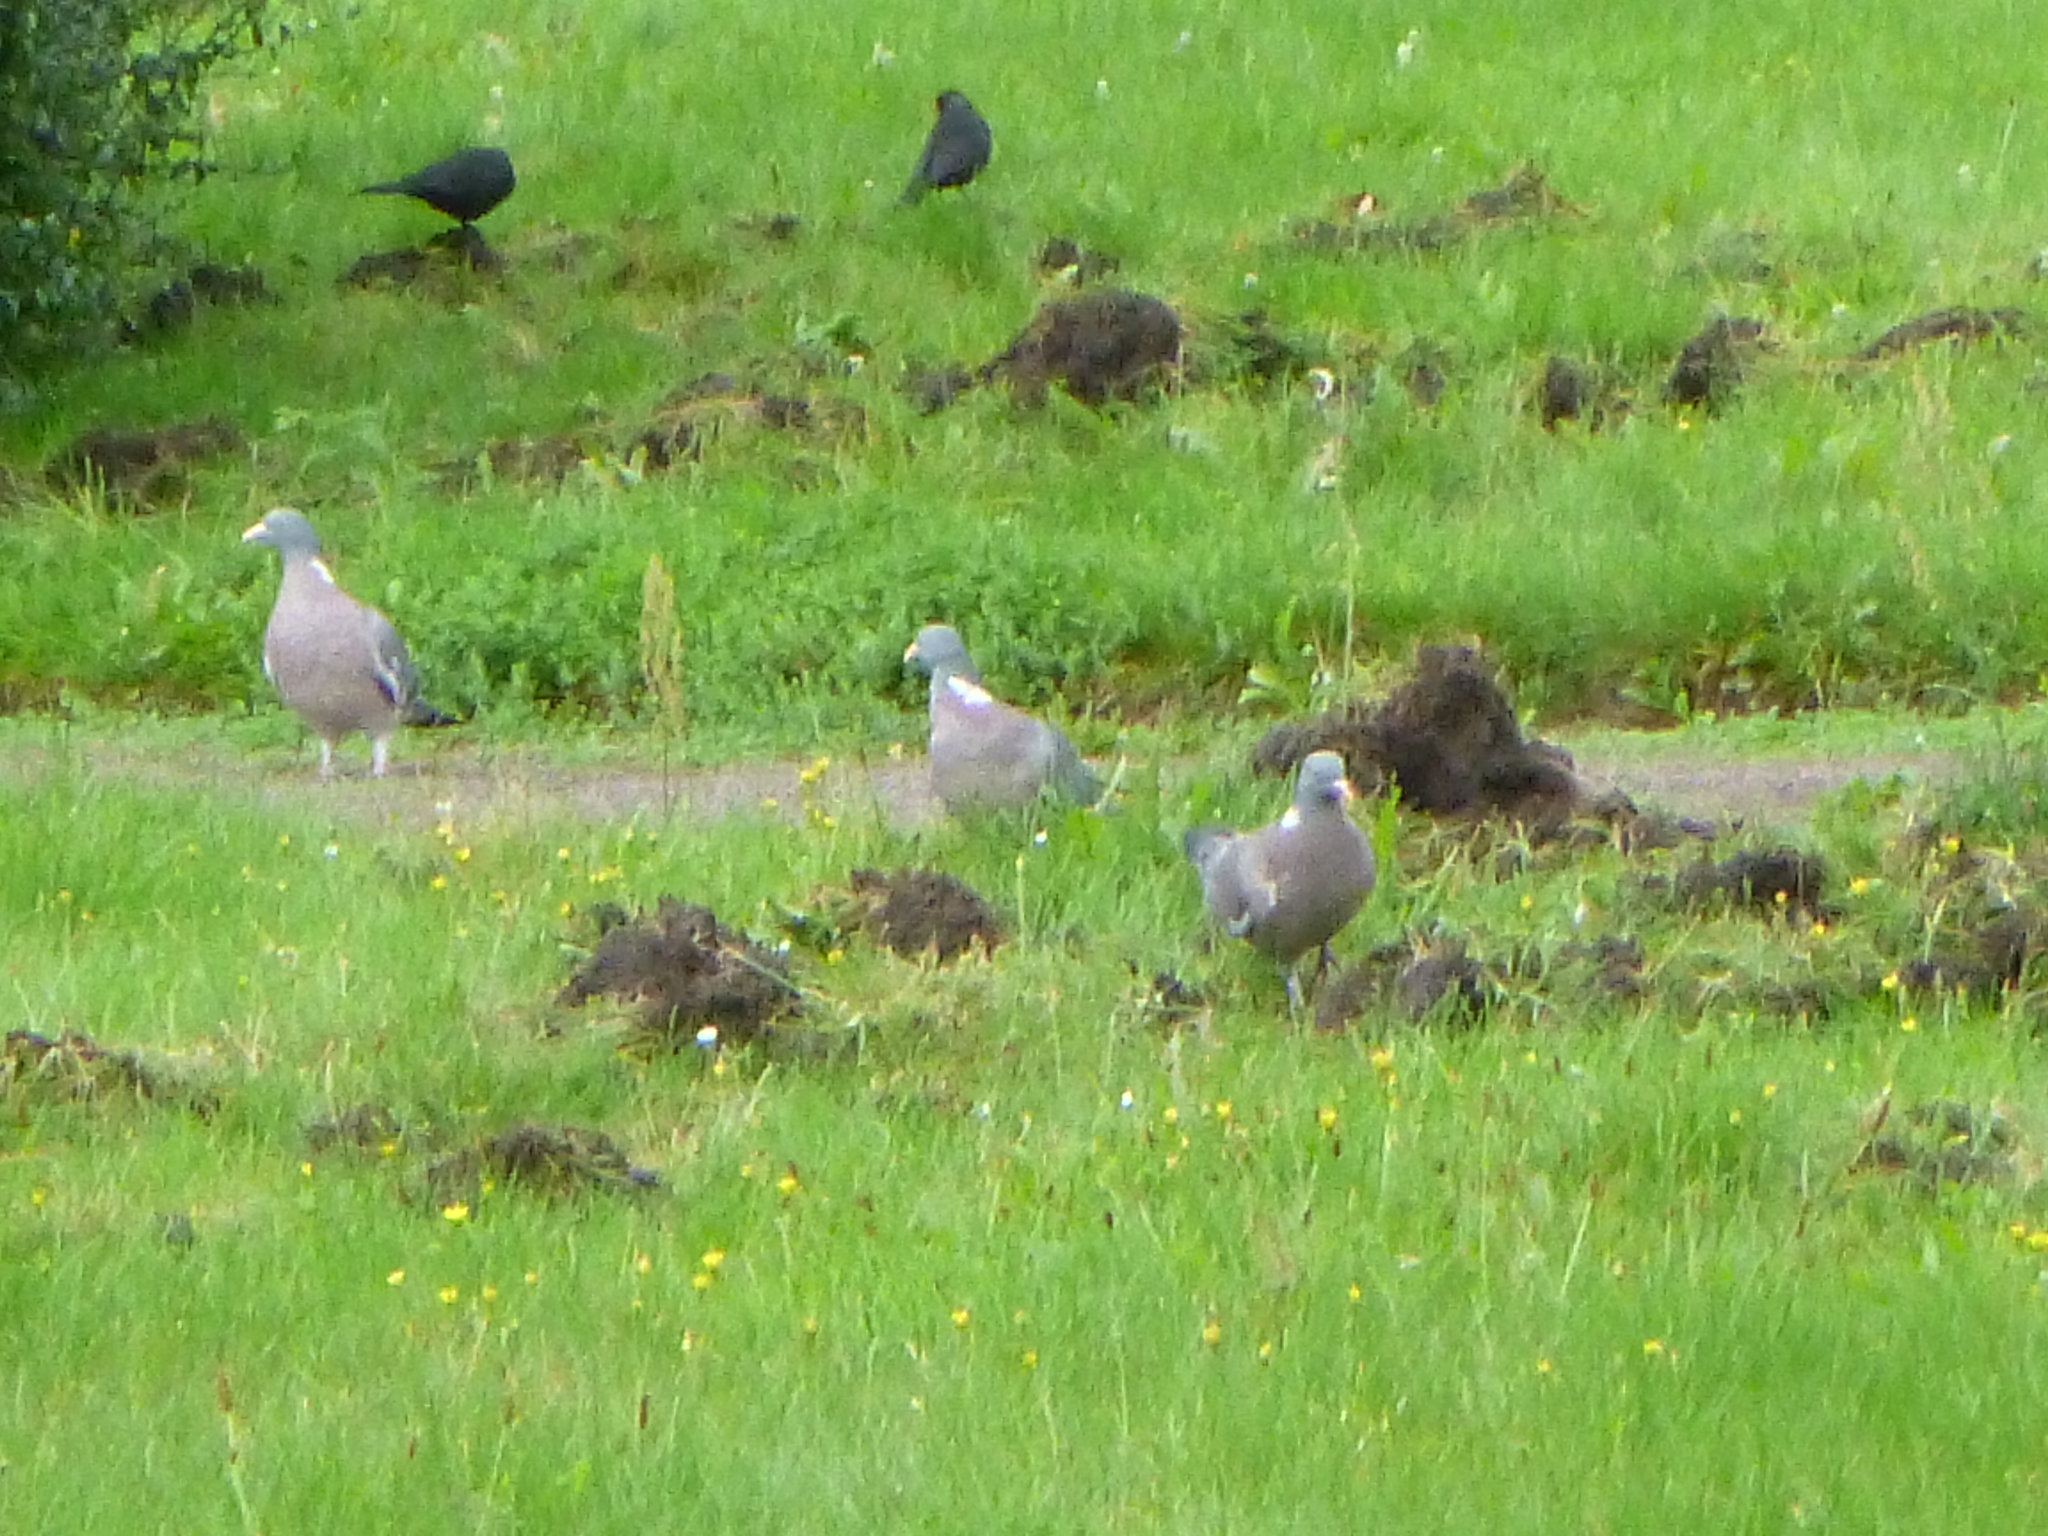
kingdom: Animalia
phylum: Chordata
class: Aves
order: Columbiformes
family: Columbidae
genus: Columba
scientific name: Columba palumbus
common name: Common wood pigeon
